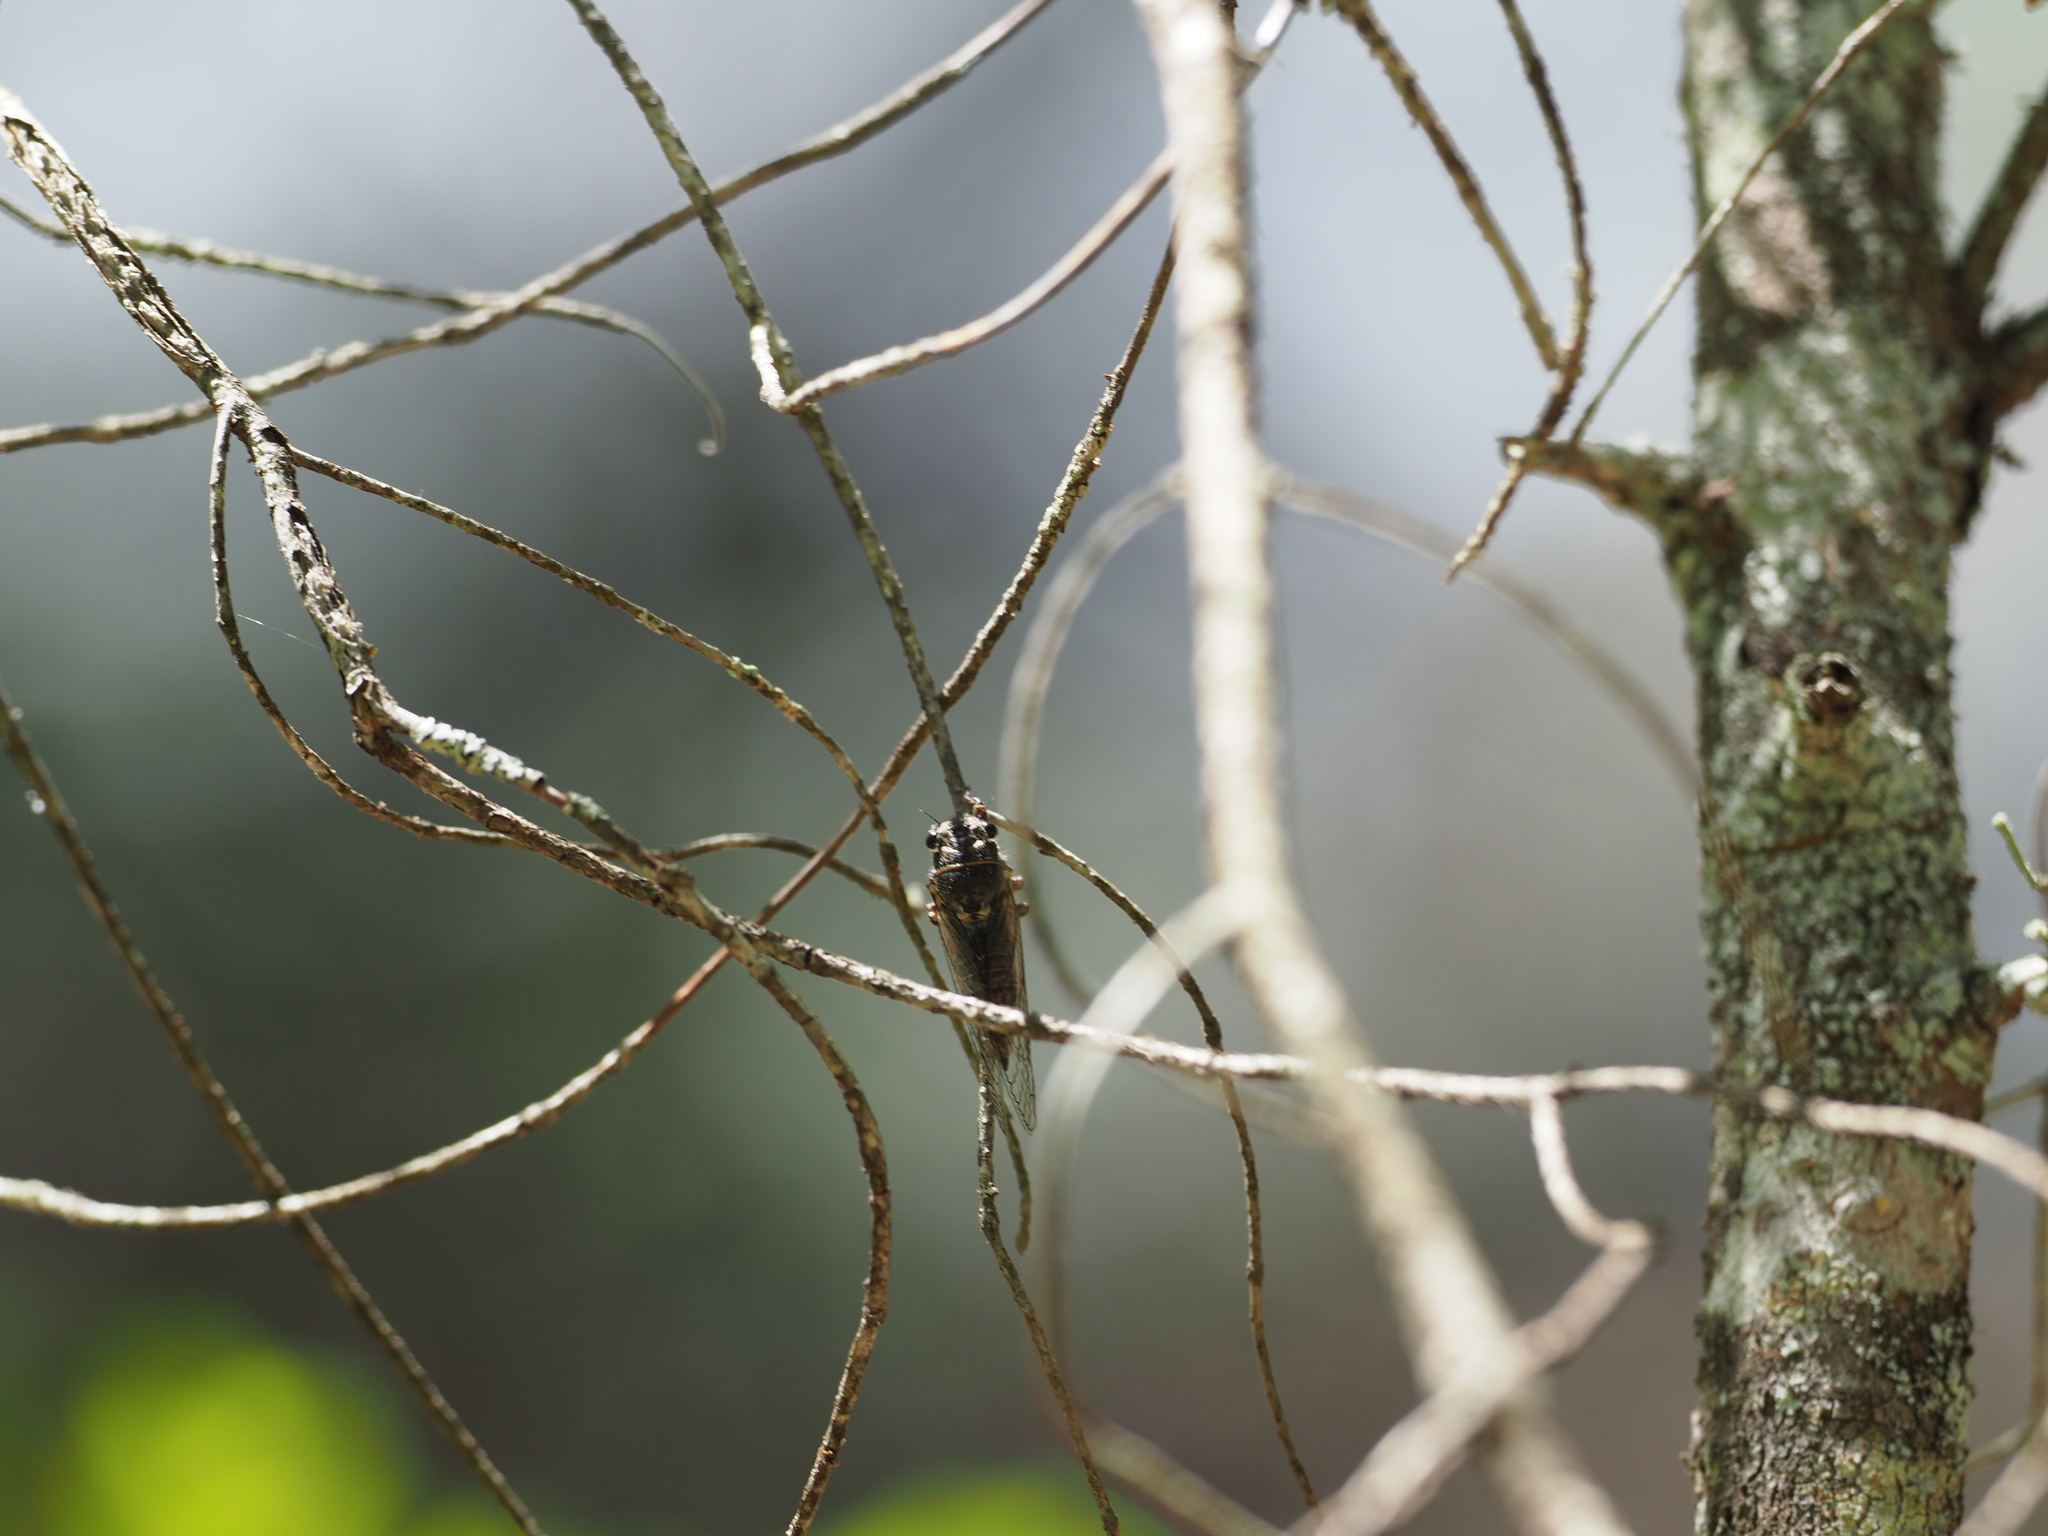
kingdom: Animalia
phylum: Arthropoda
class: Insecta
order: Hemiptera
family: Cicadidae
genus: Platypedia
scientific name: Platypedia areolata
